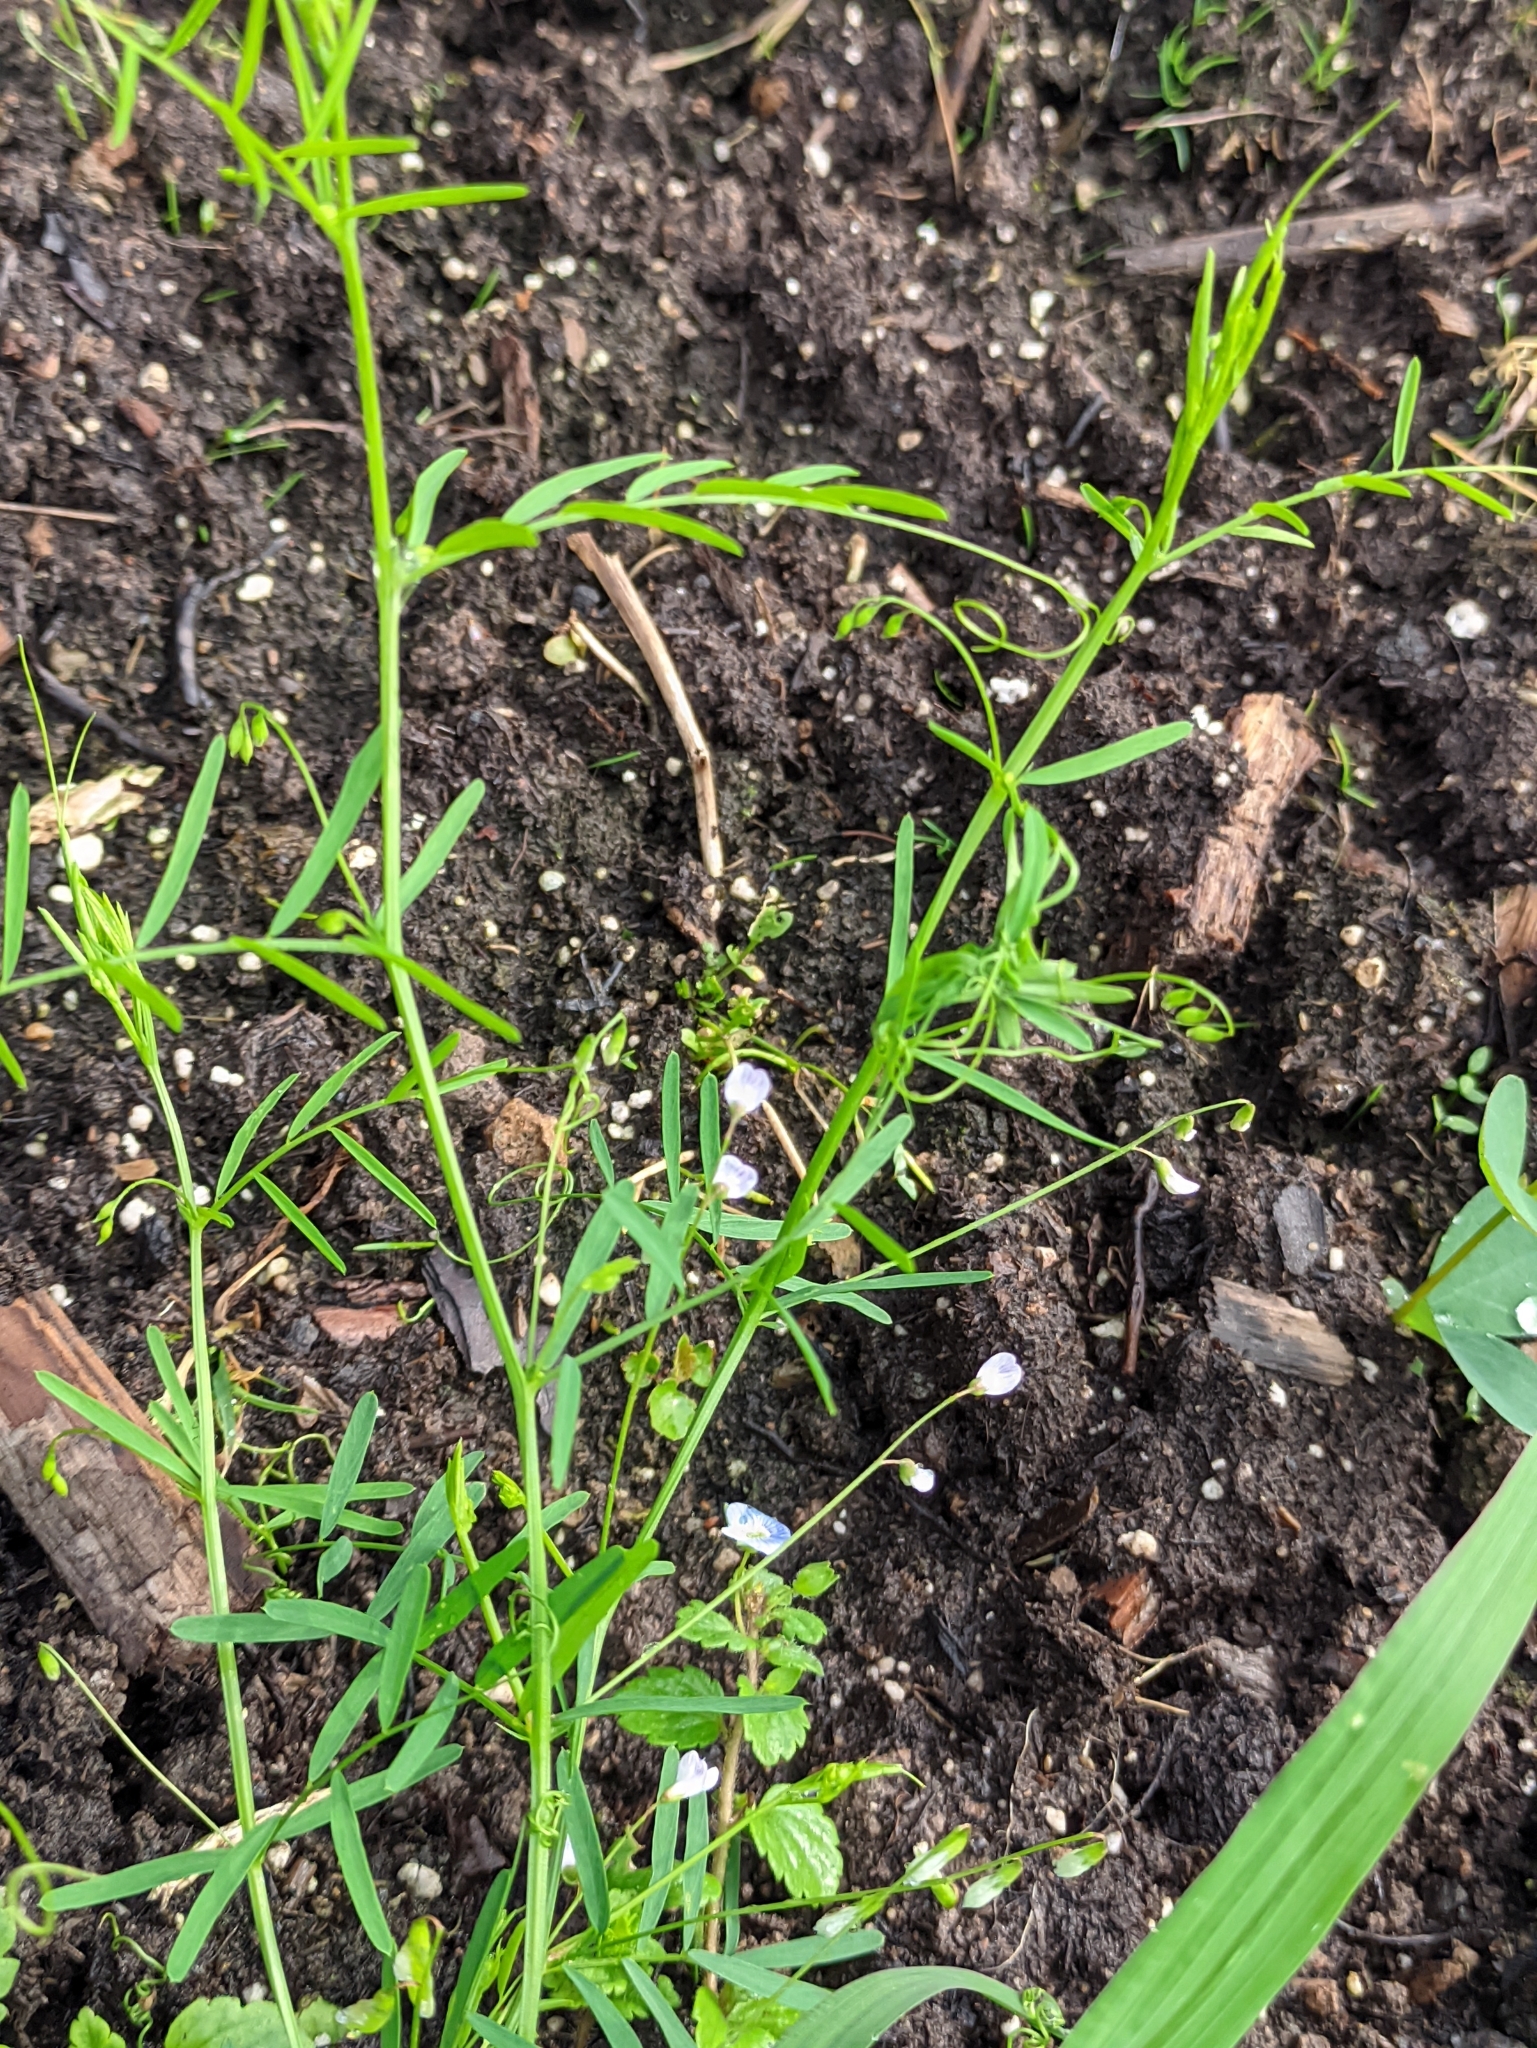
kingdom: Plantae
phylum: Tracheophyta
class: Magnoliopsida
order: Fabales
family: Fabaceae
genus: Vicia
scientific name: Vicia tetrasperma
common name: Smooth tare
